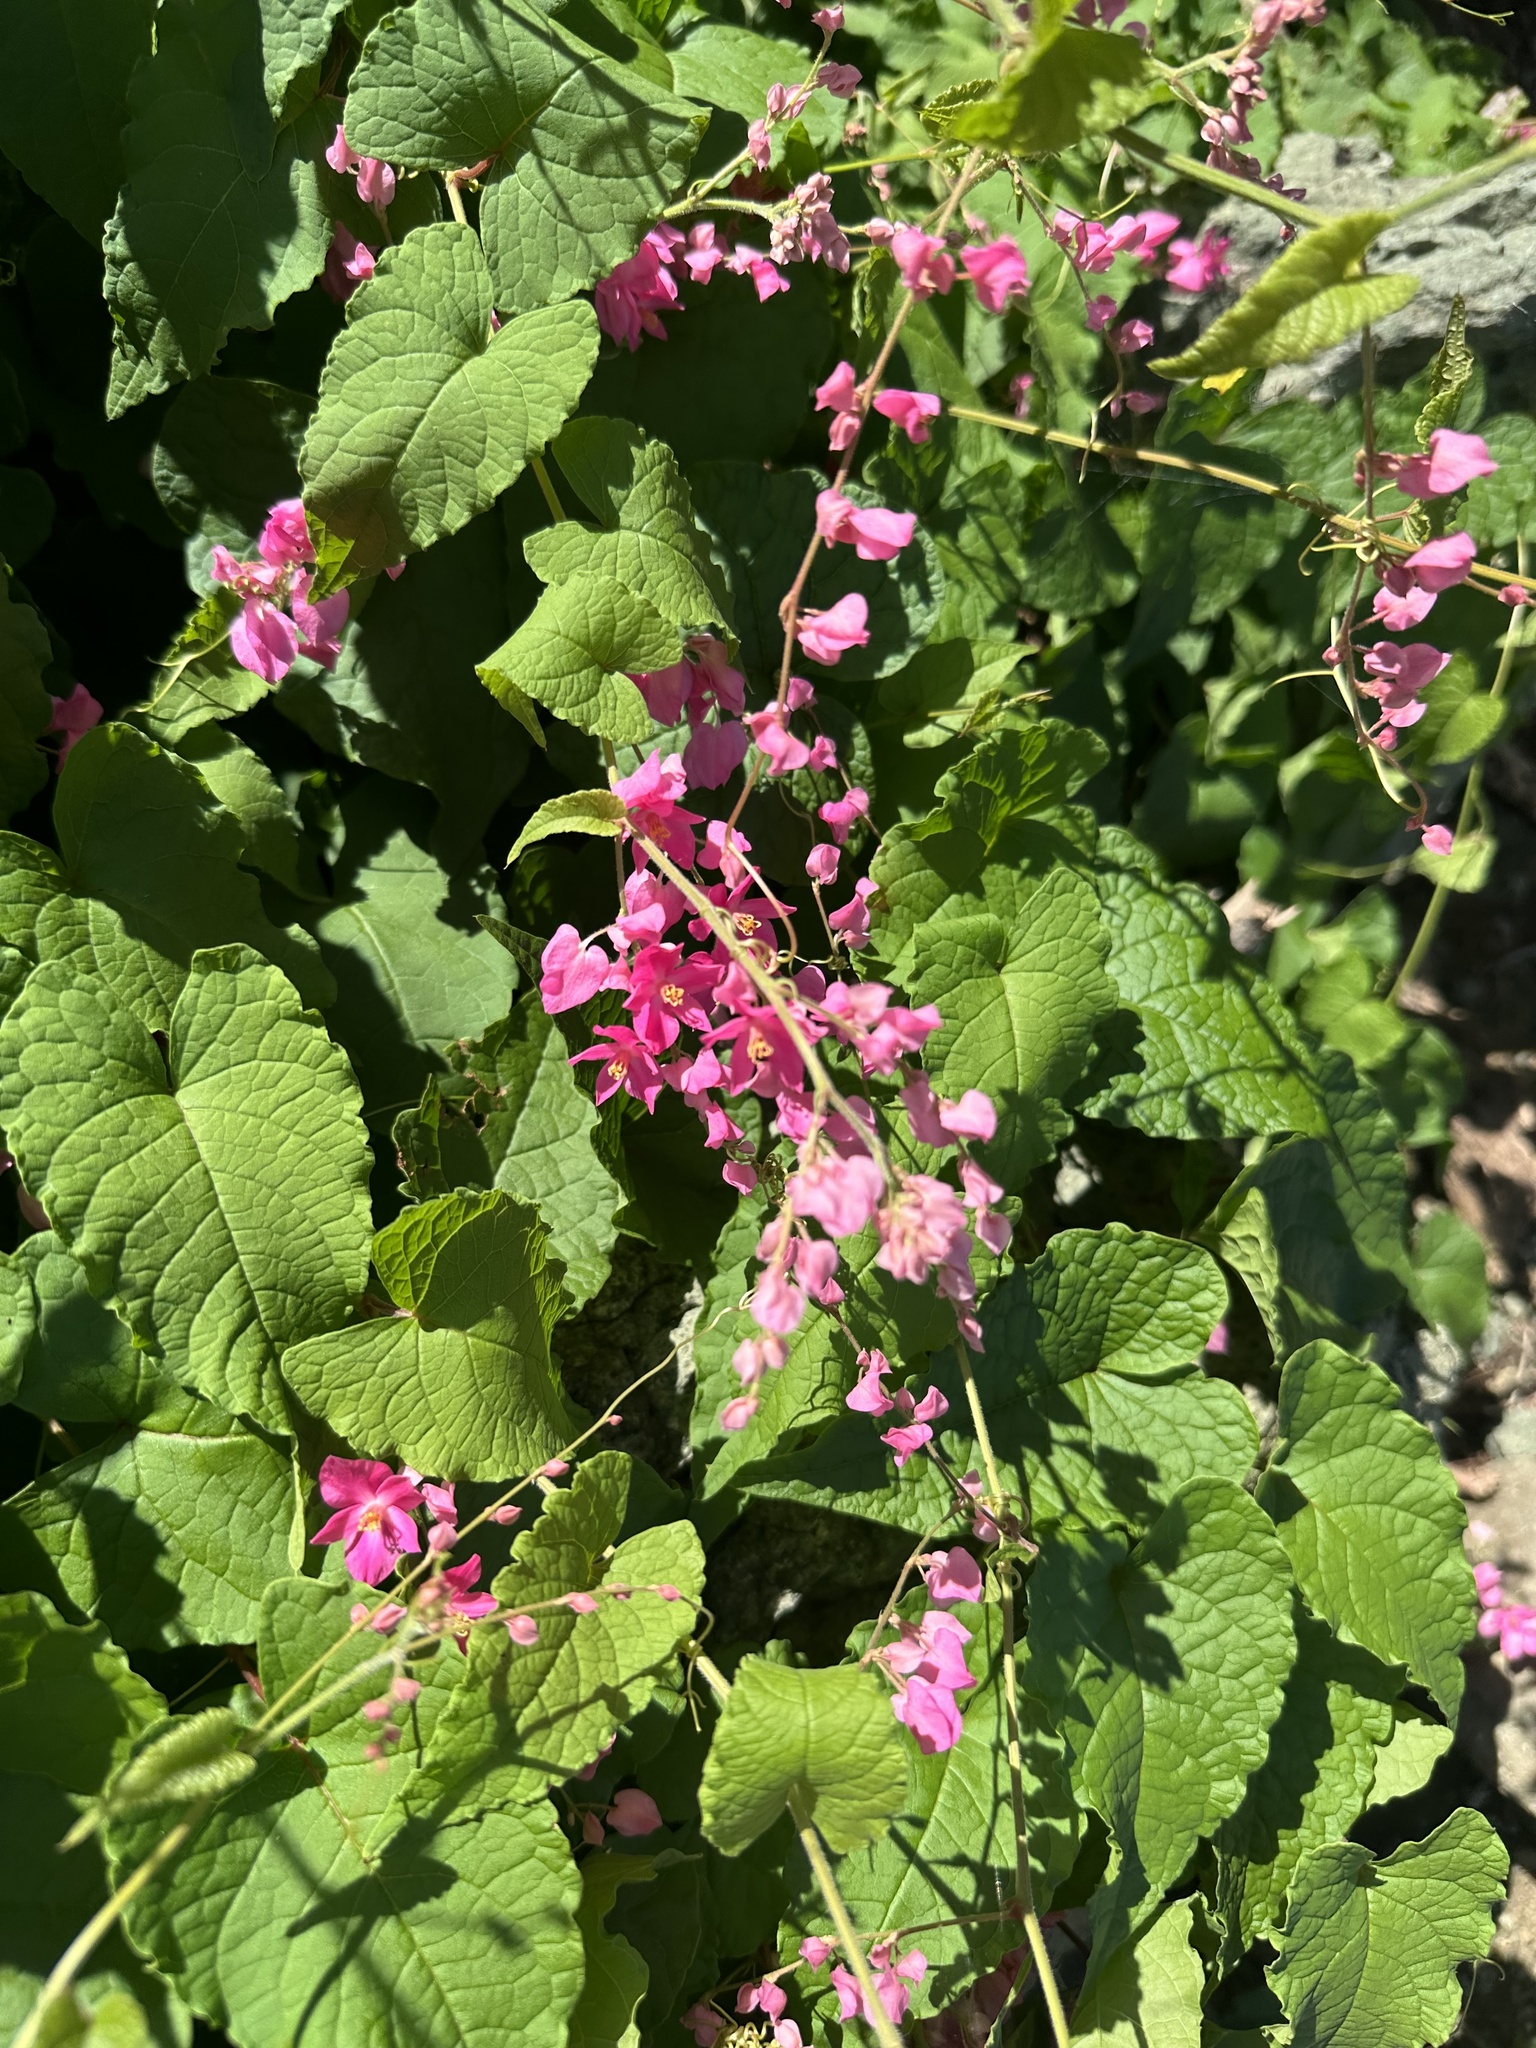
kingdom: Plantae
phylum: Tracheophyta
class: Magnoliopsida
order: Caryophyllales
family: Polygonaceae
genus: Antigonon
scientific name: Antigonon leptopus
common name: Coral vine
